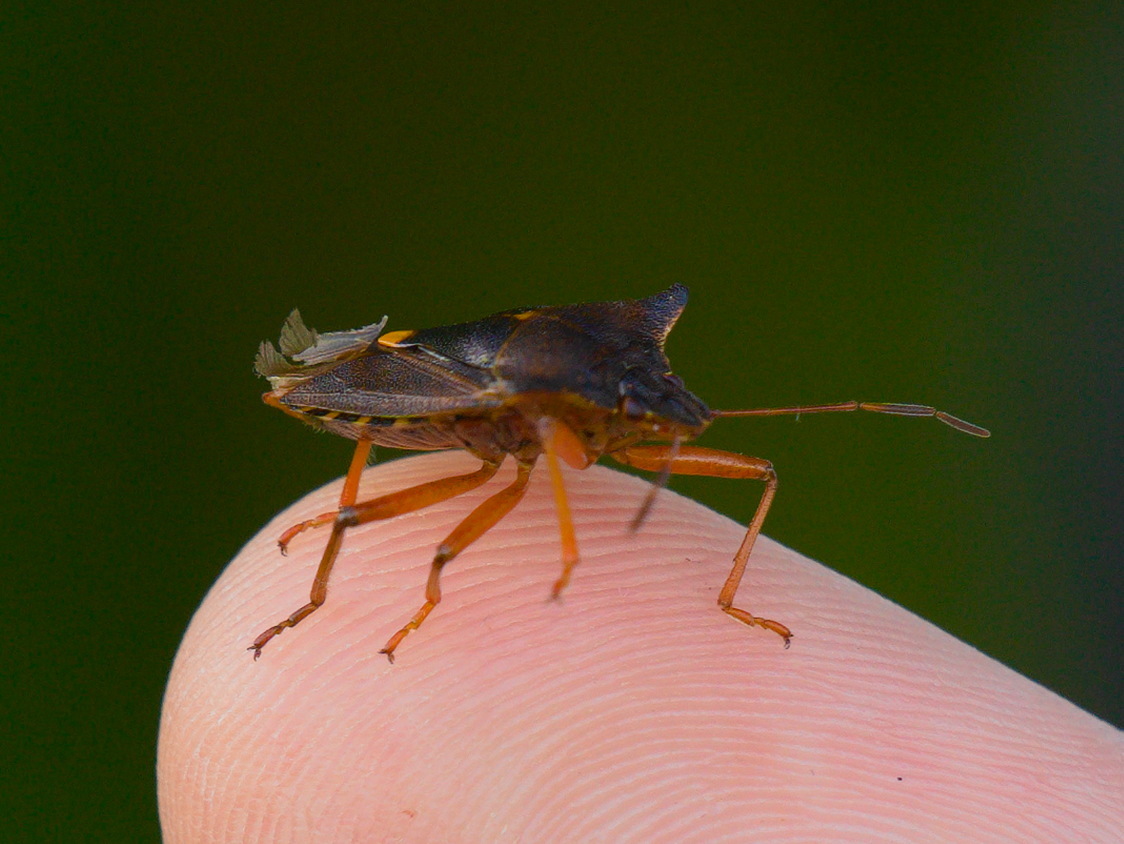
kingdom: Animalia
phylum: Arthropoda
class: Insecta
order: Hemiptera
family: Pentatomidae
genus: Pentatoma
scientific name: Pentatoma rufipes
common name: Forest bug
